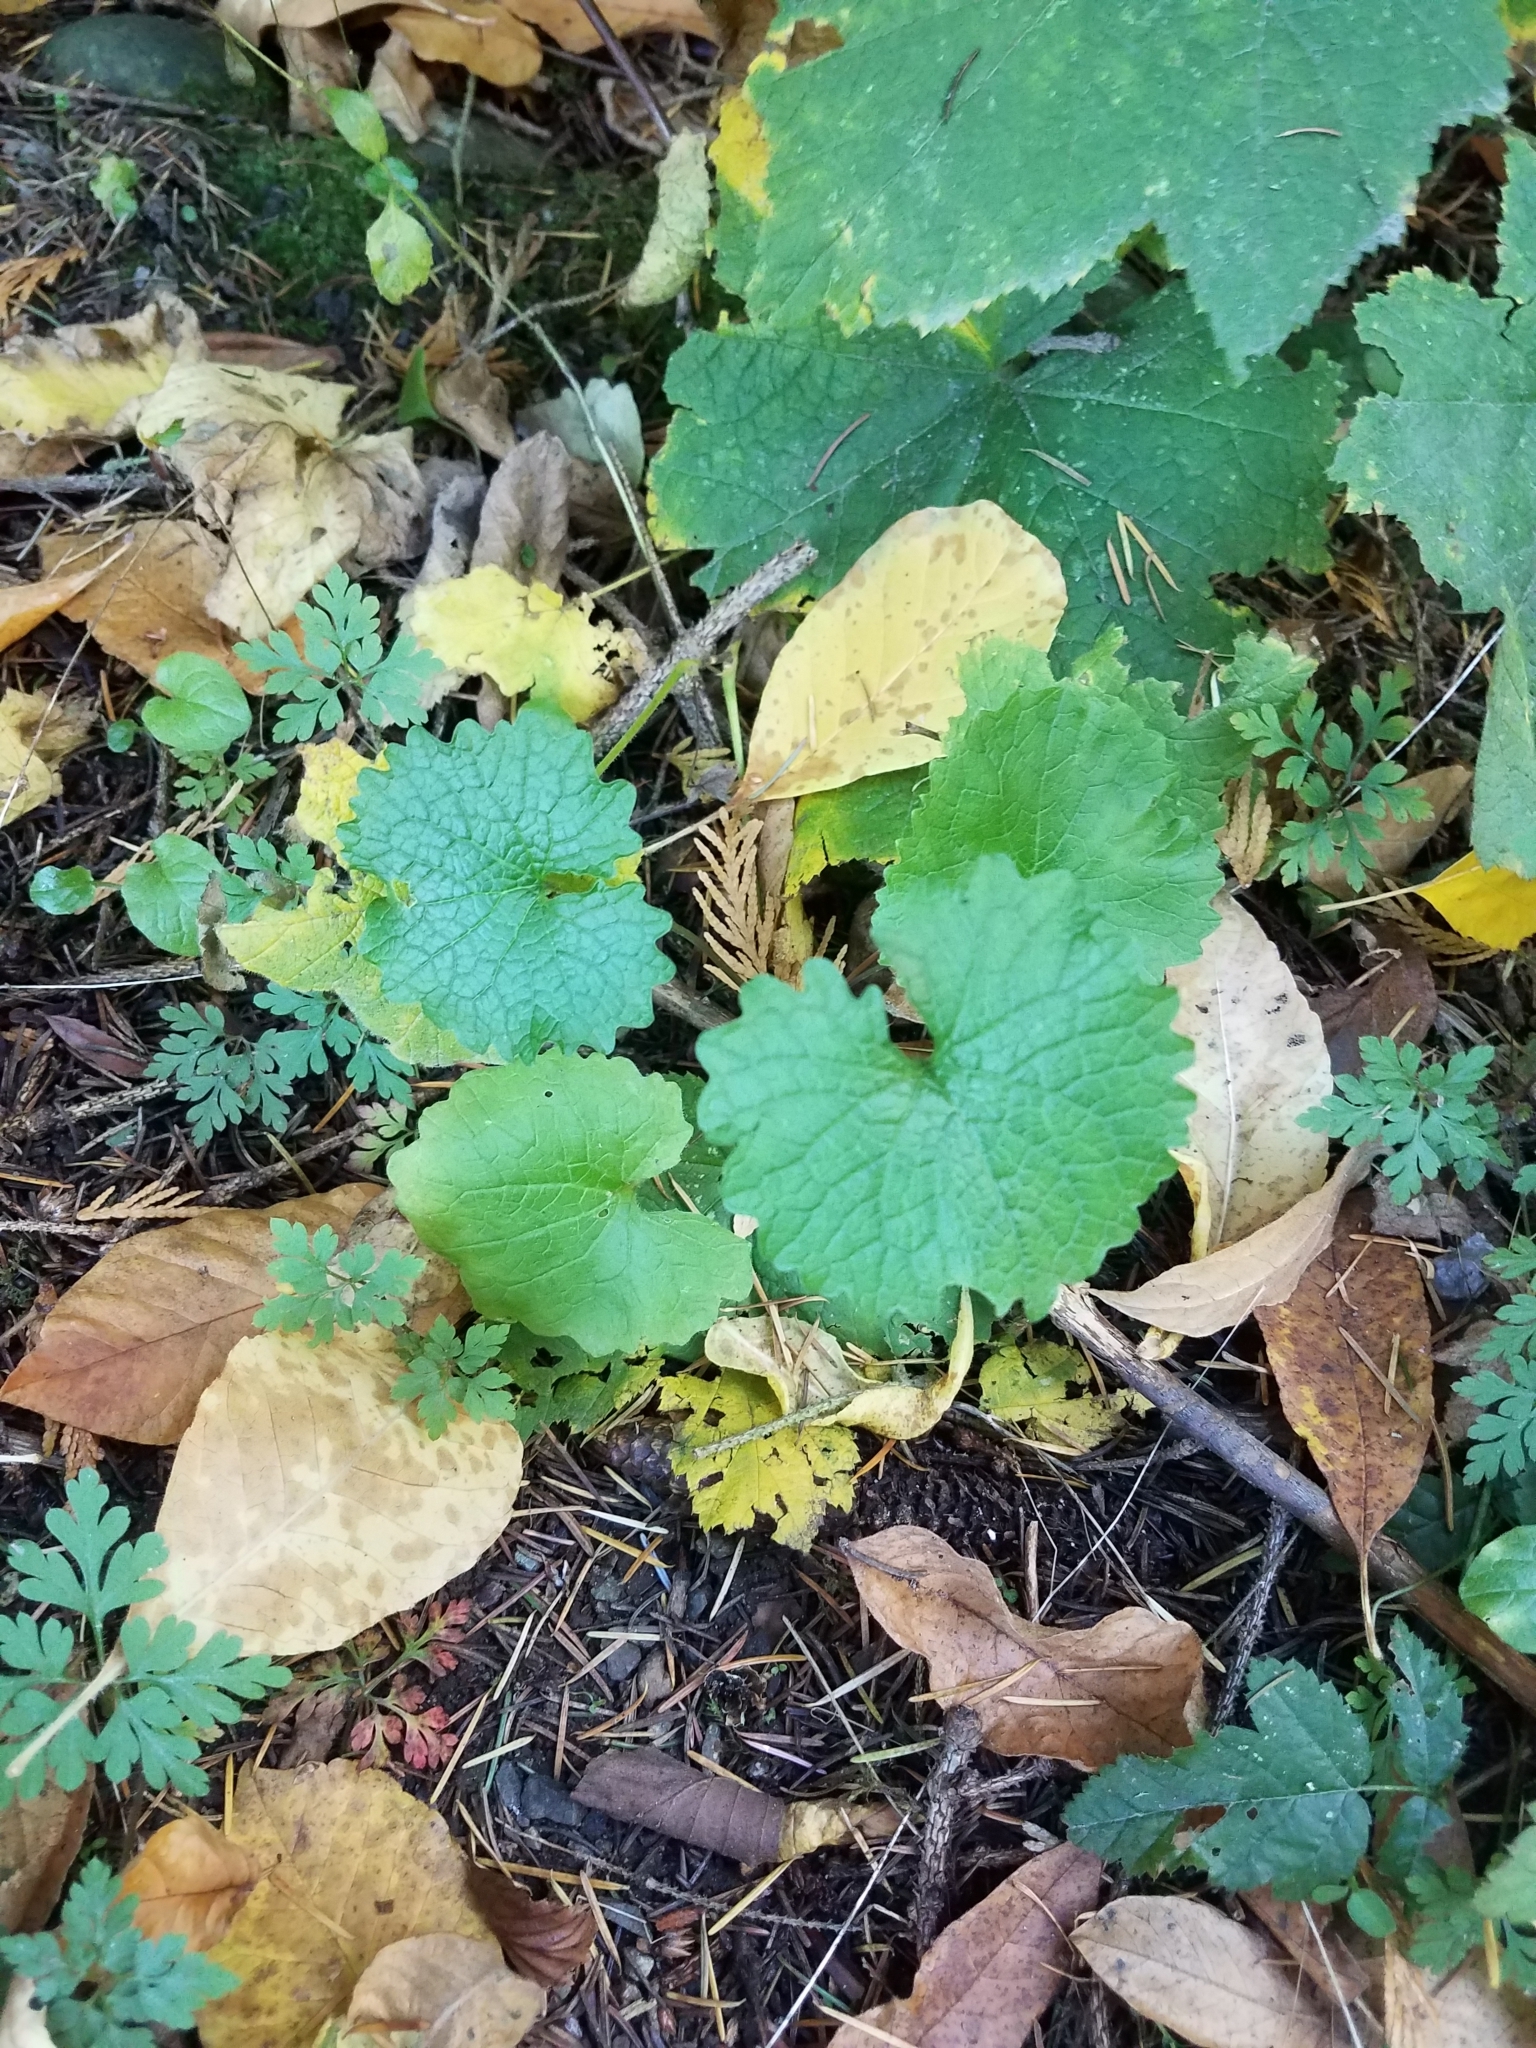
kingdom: Plantae
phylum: Tracheophyta
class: Magnoliopsida
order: Brassicales
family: Brassicaceae
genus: Alliaria
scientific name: Alliaria petiolata
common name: Garlic mustard
